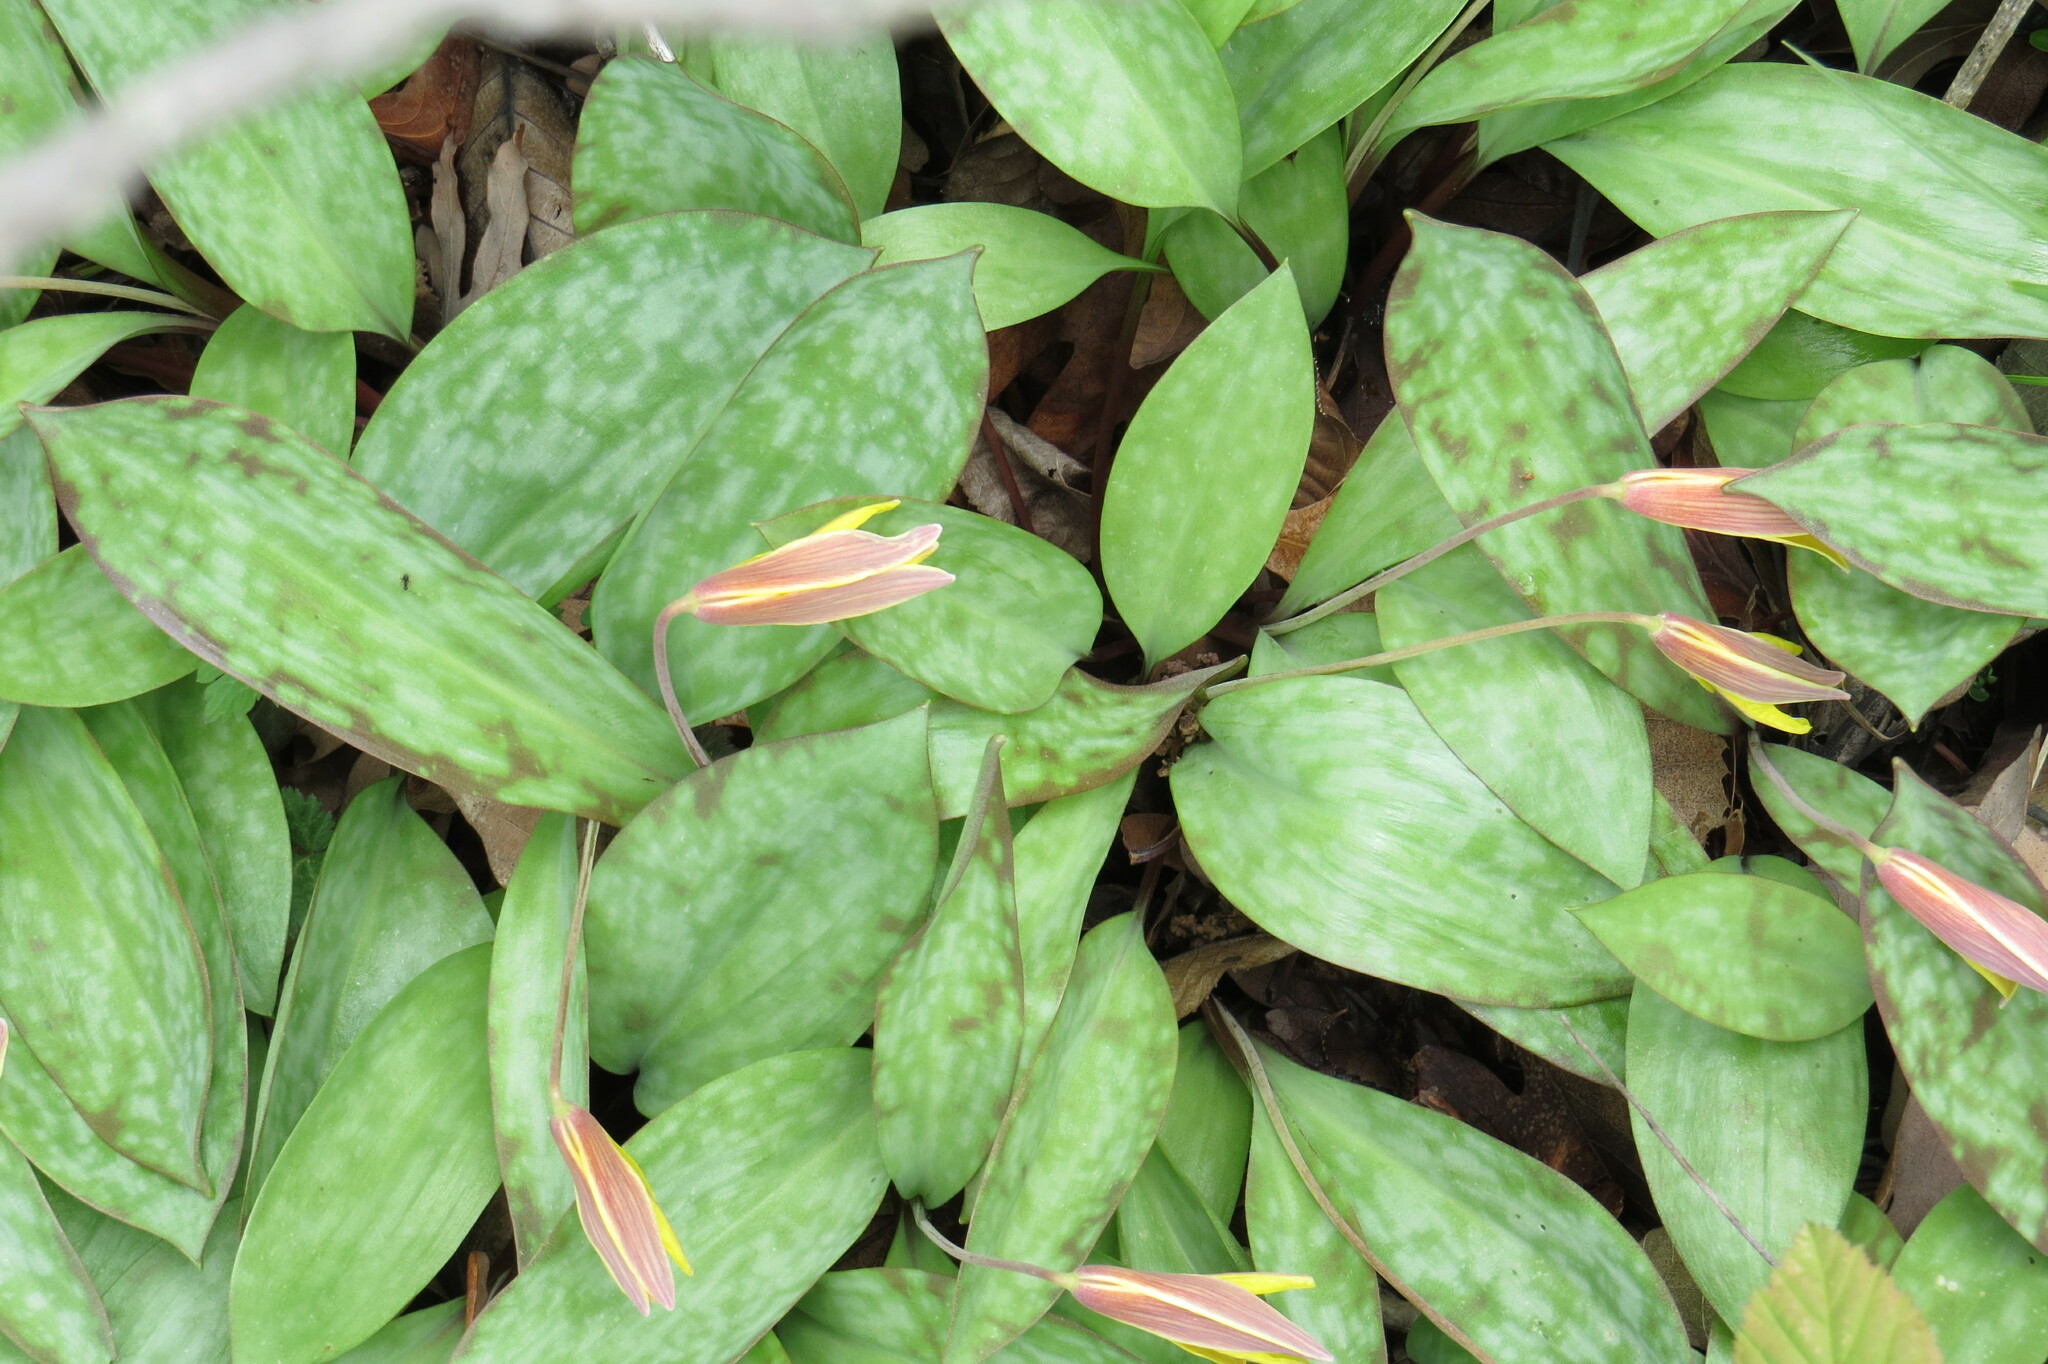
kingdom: Plantae
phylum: Tracheophyta
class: Liliopsida
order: Liliales
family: Liliaceae
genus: Erythronium
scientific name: Erythronium americanum
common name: Yellow adder's-tongue
